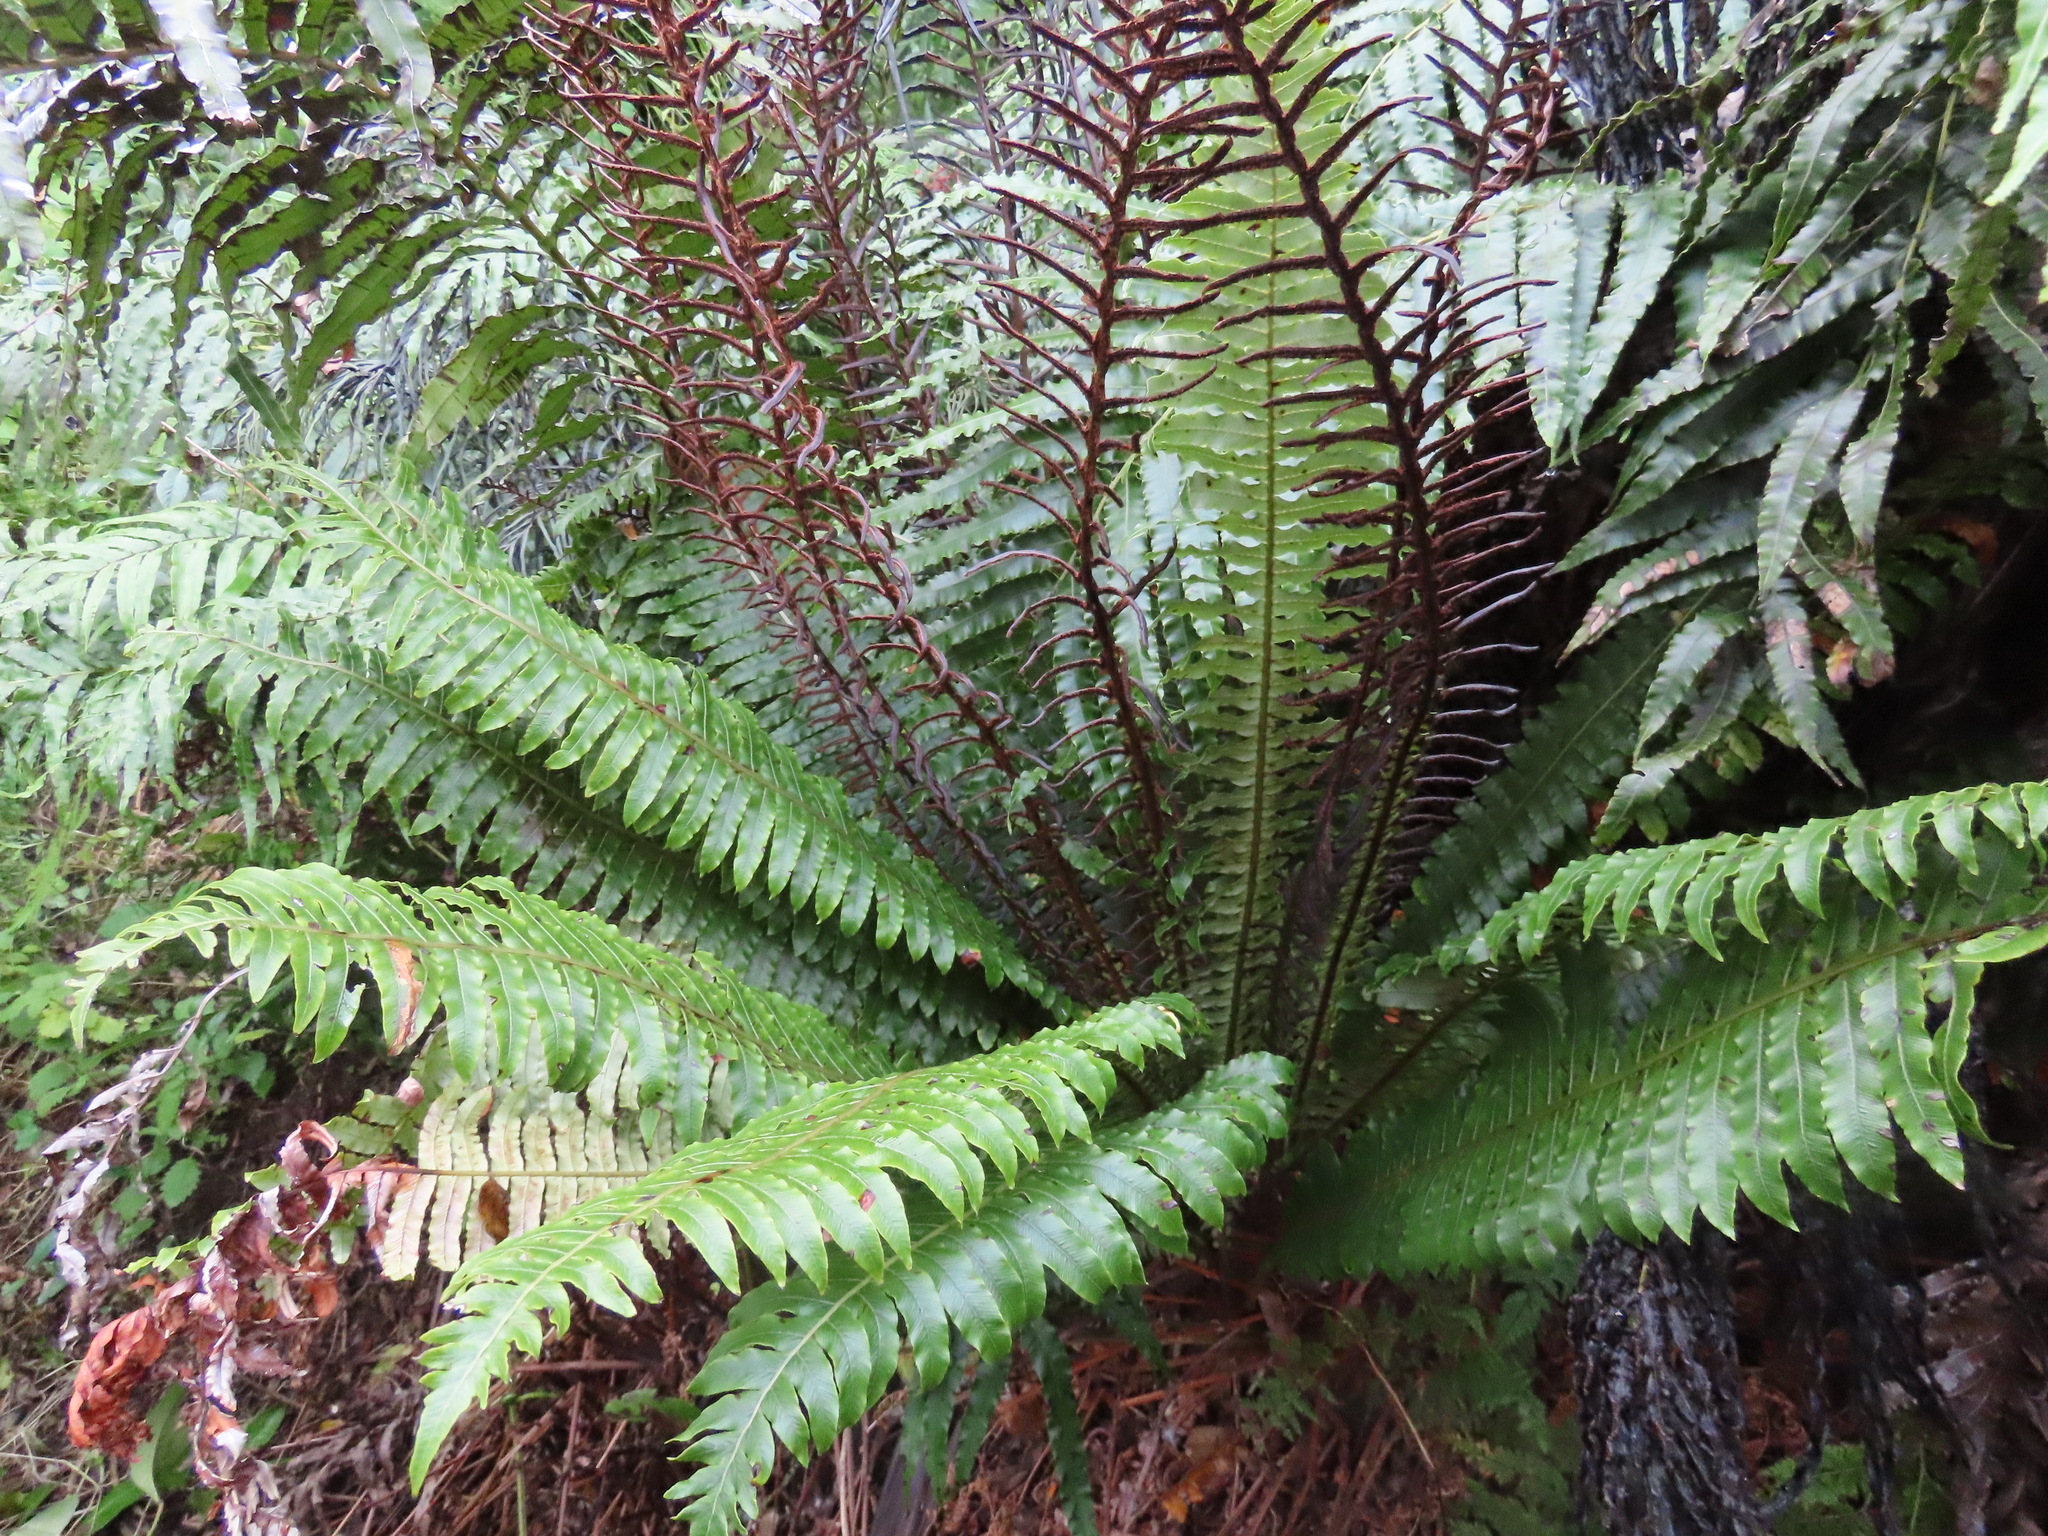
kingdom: Plantae
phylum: Tracheophyta
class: Polypodiopsida
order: Polypodiales
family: Blechnaceae
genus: Lomaria
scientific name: Lomaria discolor
